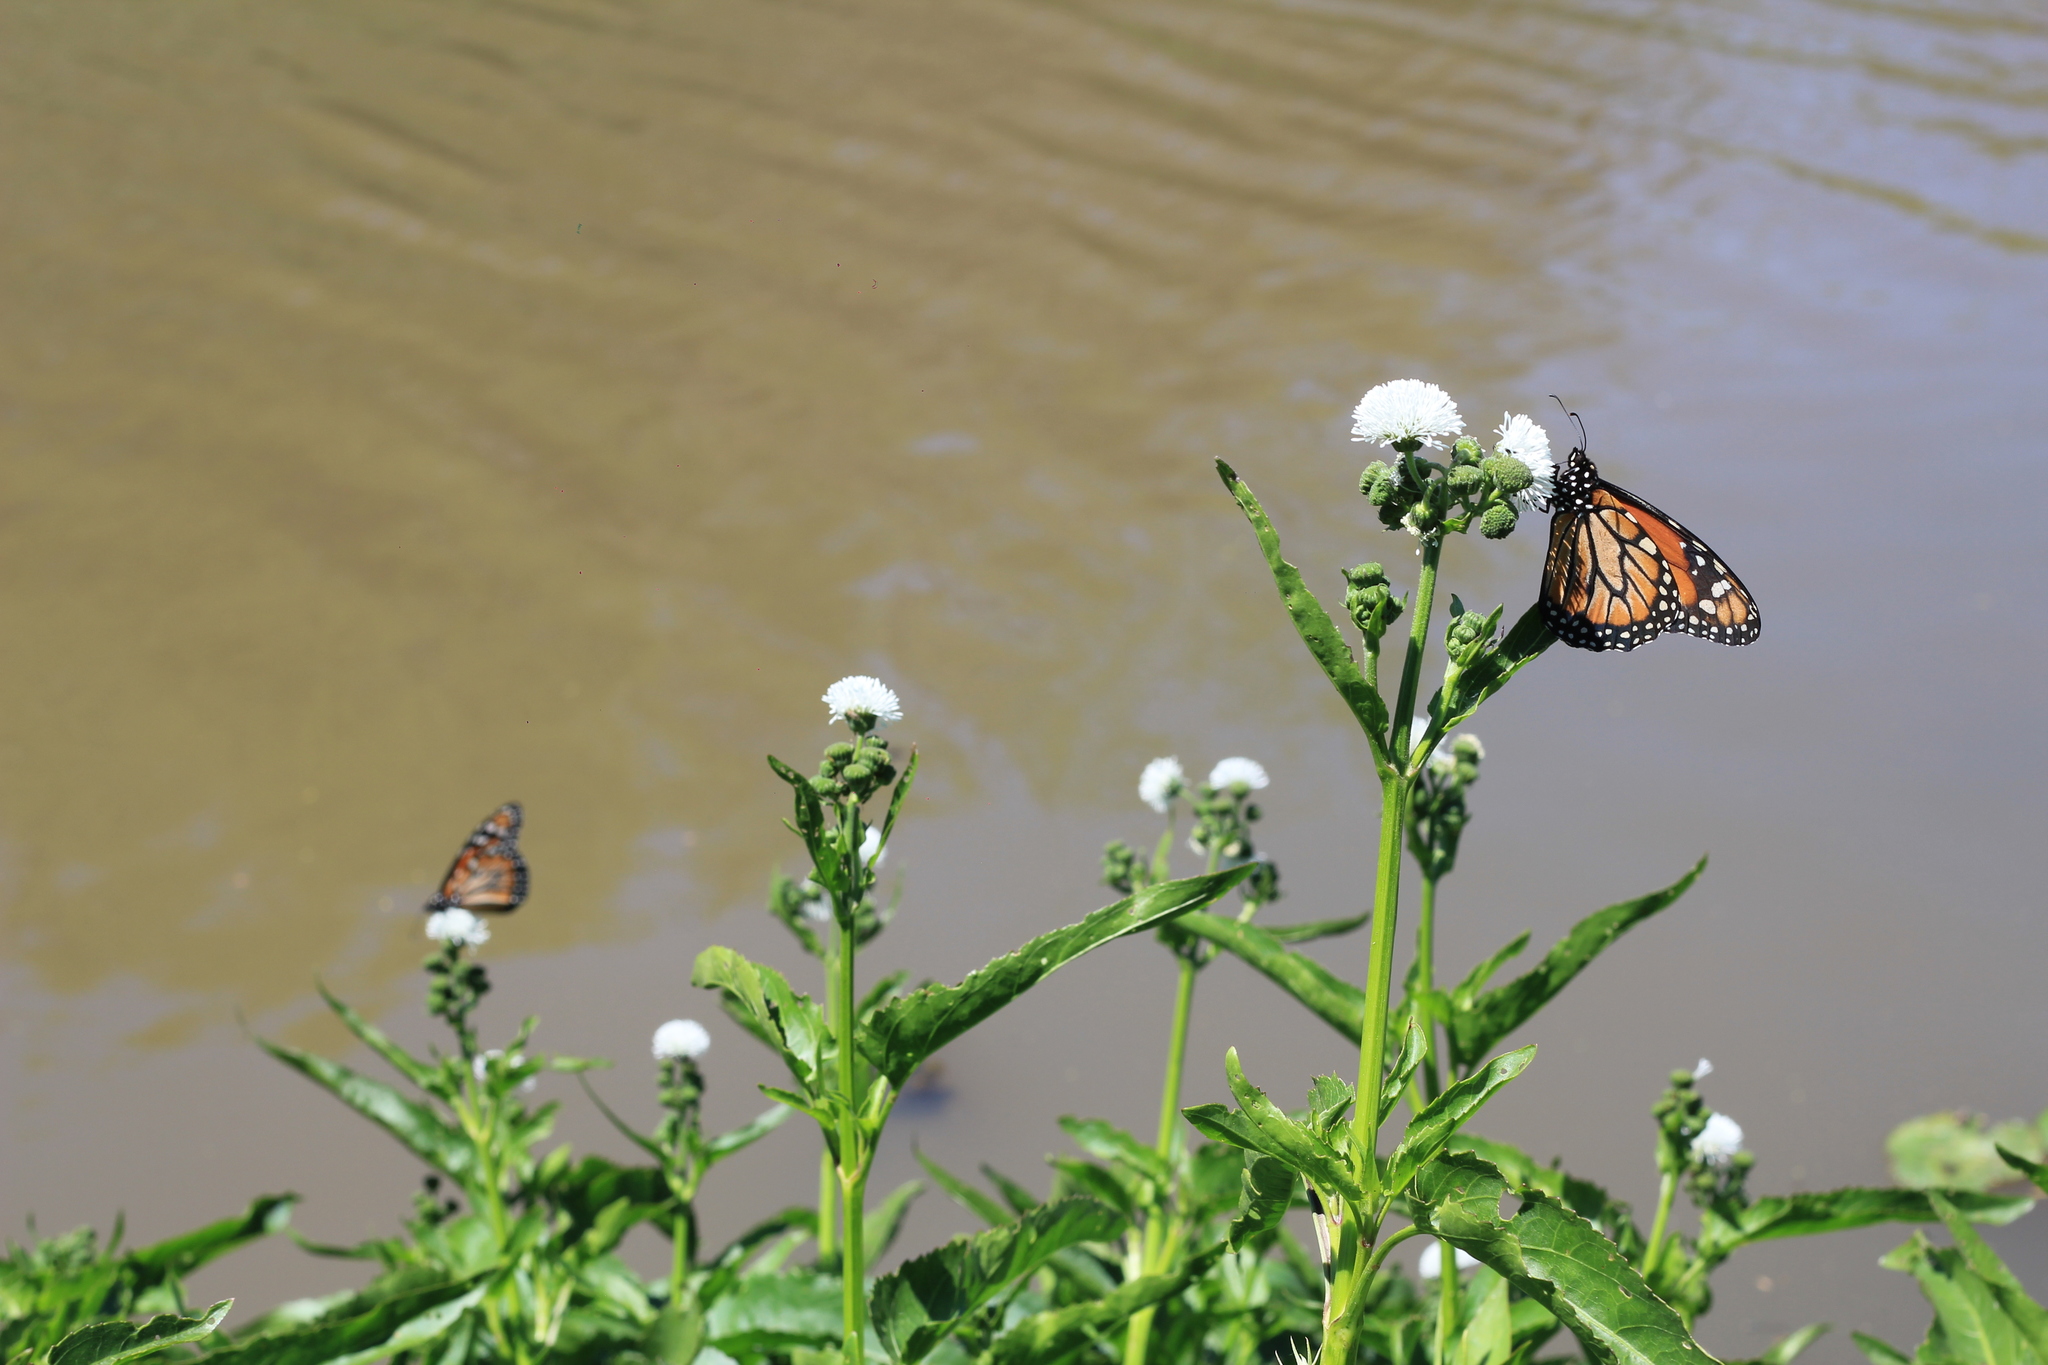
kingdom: Animalia
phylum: Arthropoda
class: Insecta
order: Lepidoptera
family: Nymphalidae
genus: Danaus
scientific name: Danaus erippus
